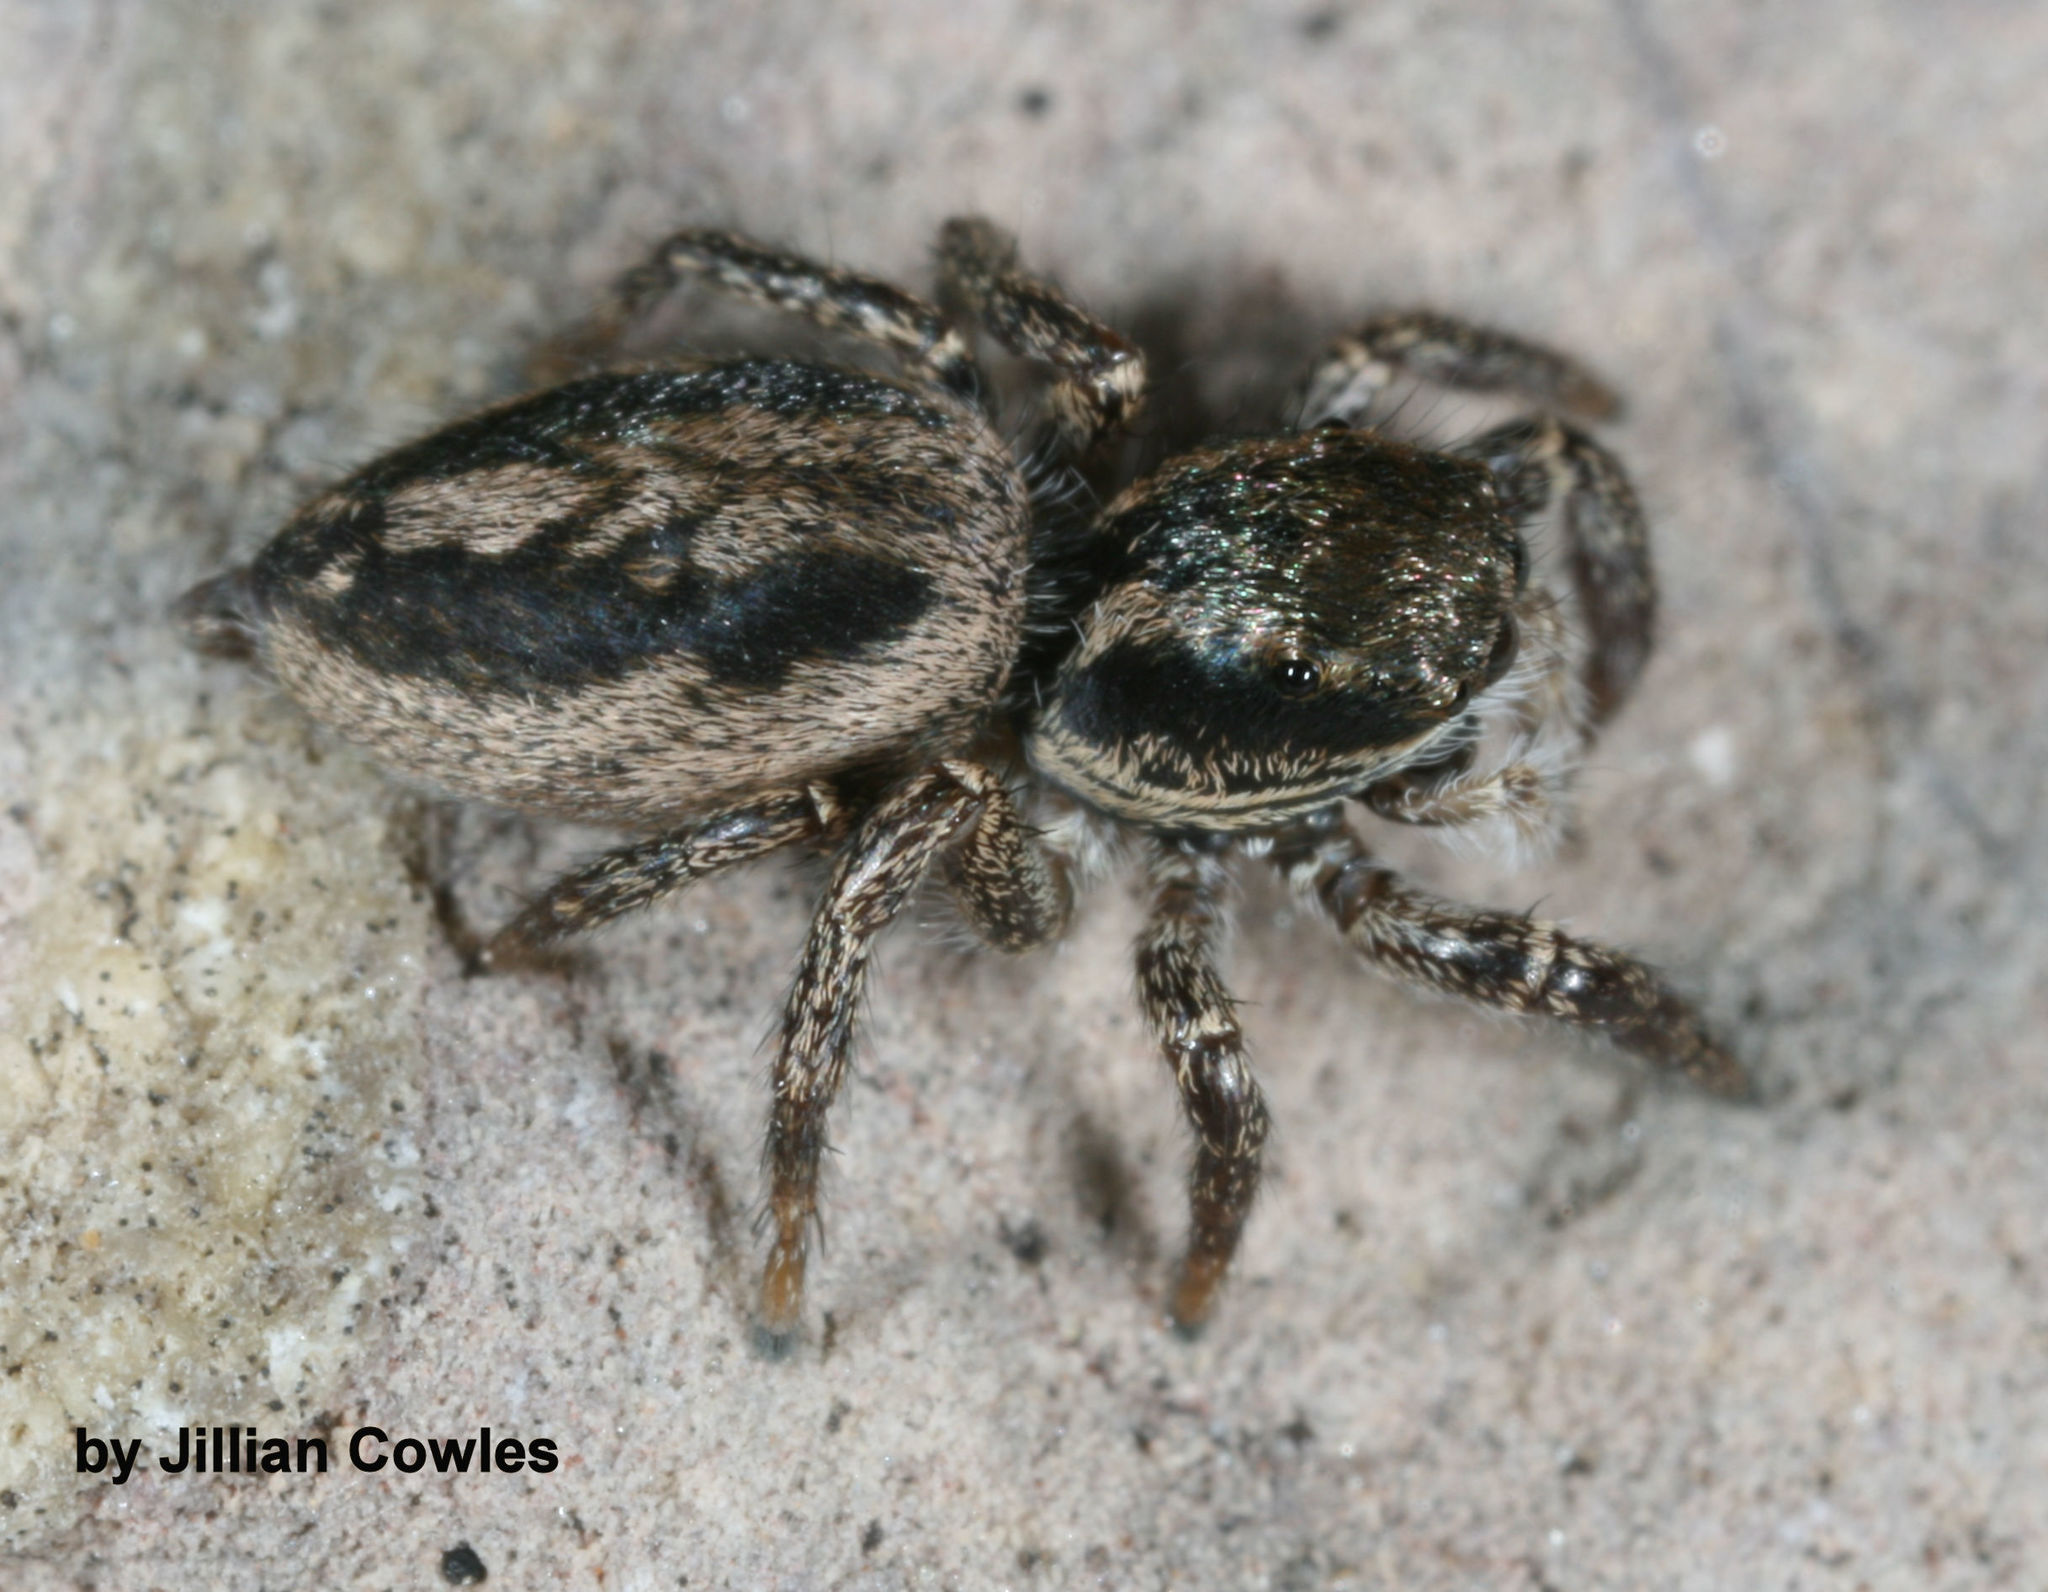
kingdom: Animalia
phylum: Arthropoda
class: Arachnida
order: Araneae
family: Salticidae
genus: Habronattus
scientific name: Habronattus pyrrithrix
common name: Jumping spider
